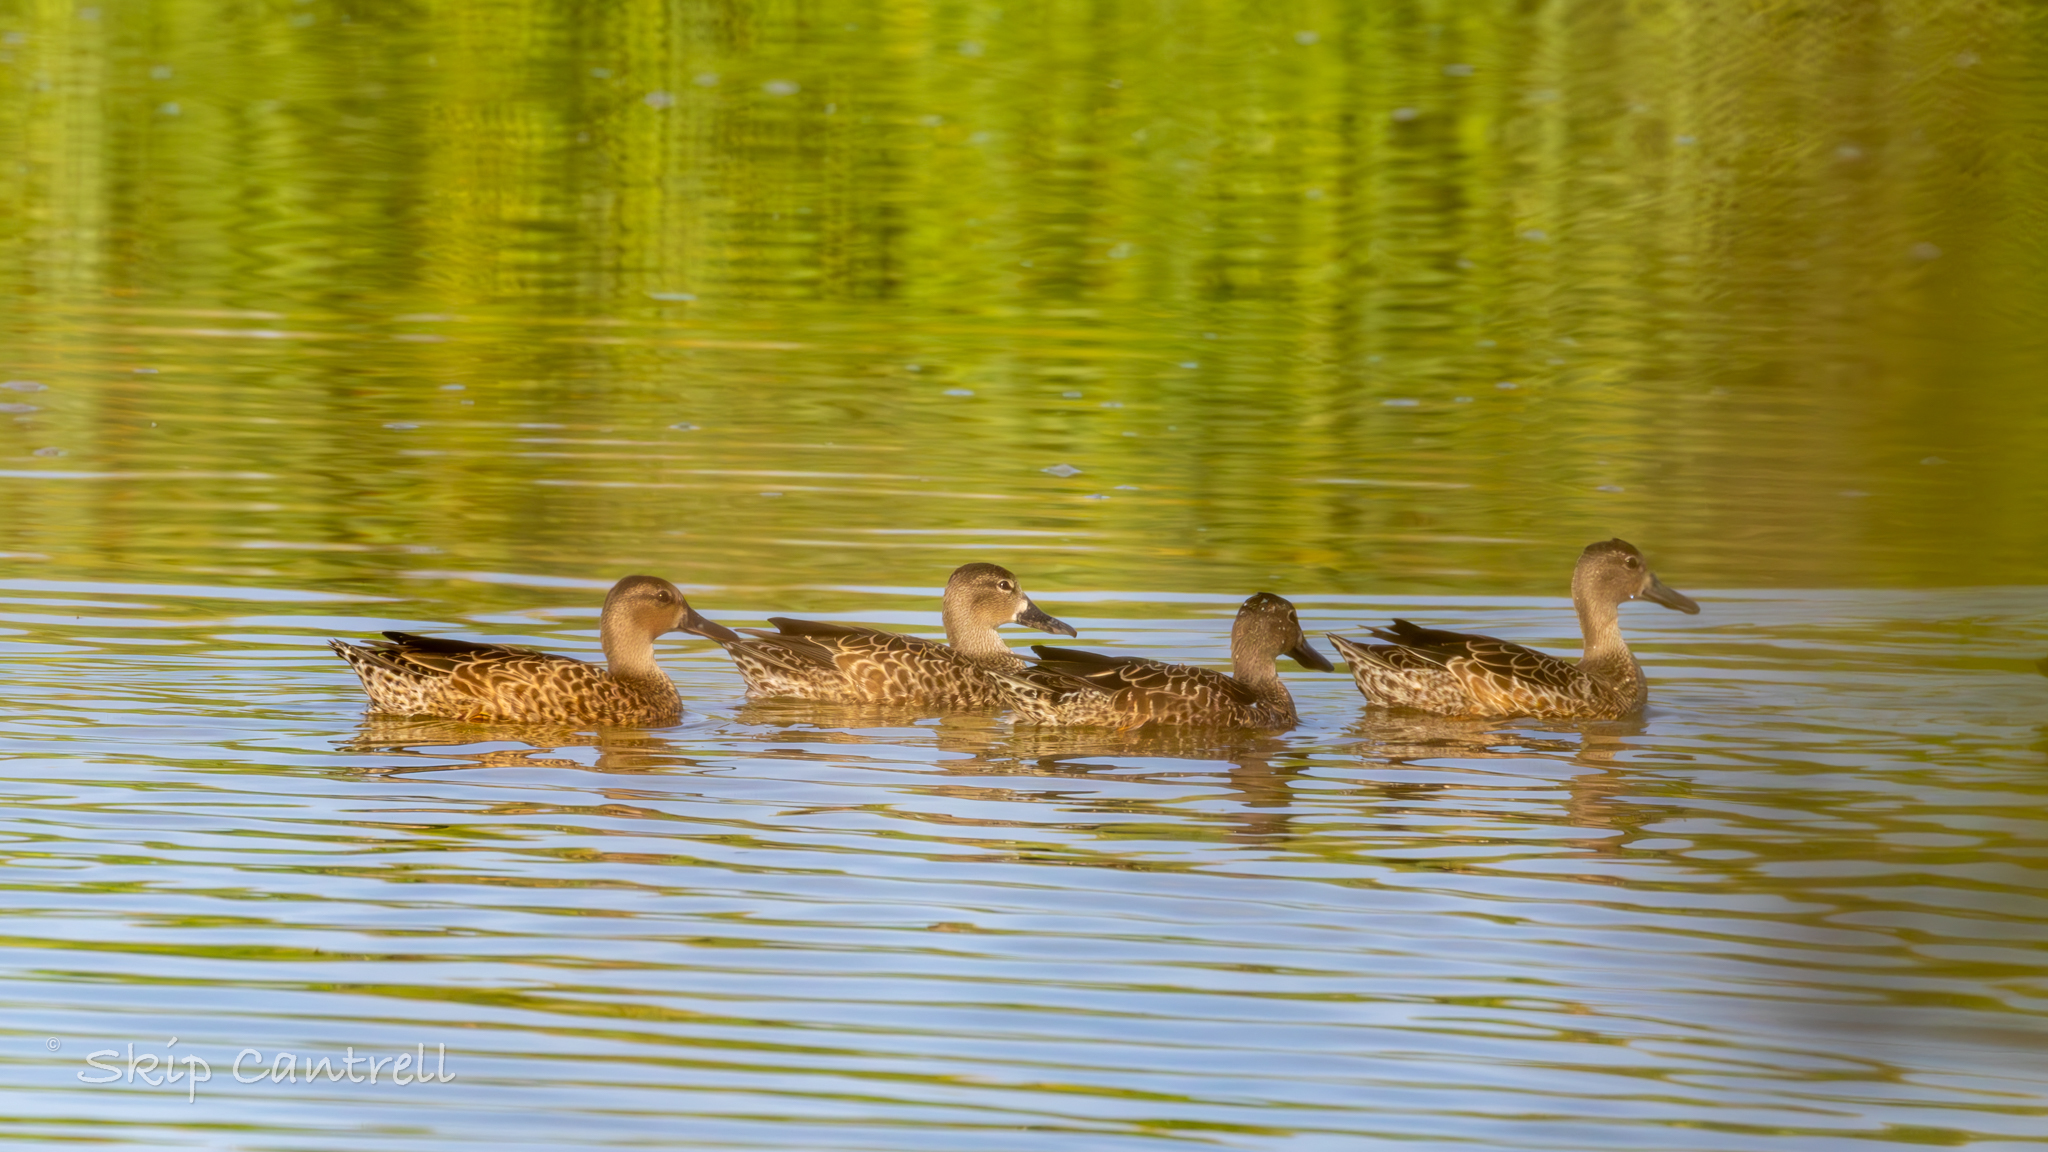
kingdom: Animalia
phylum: Chordata
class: Aves
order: Anseriformes
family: Anatidae
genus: Spatula
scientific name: Spatula discors
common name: Blue-winged teal
